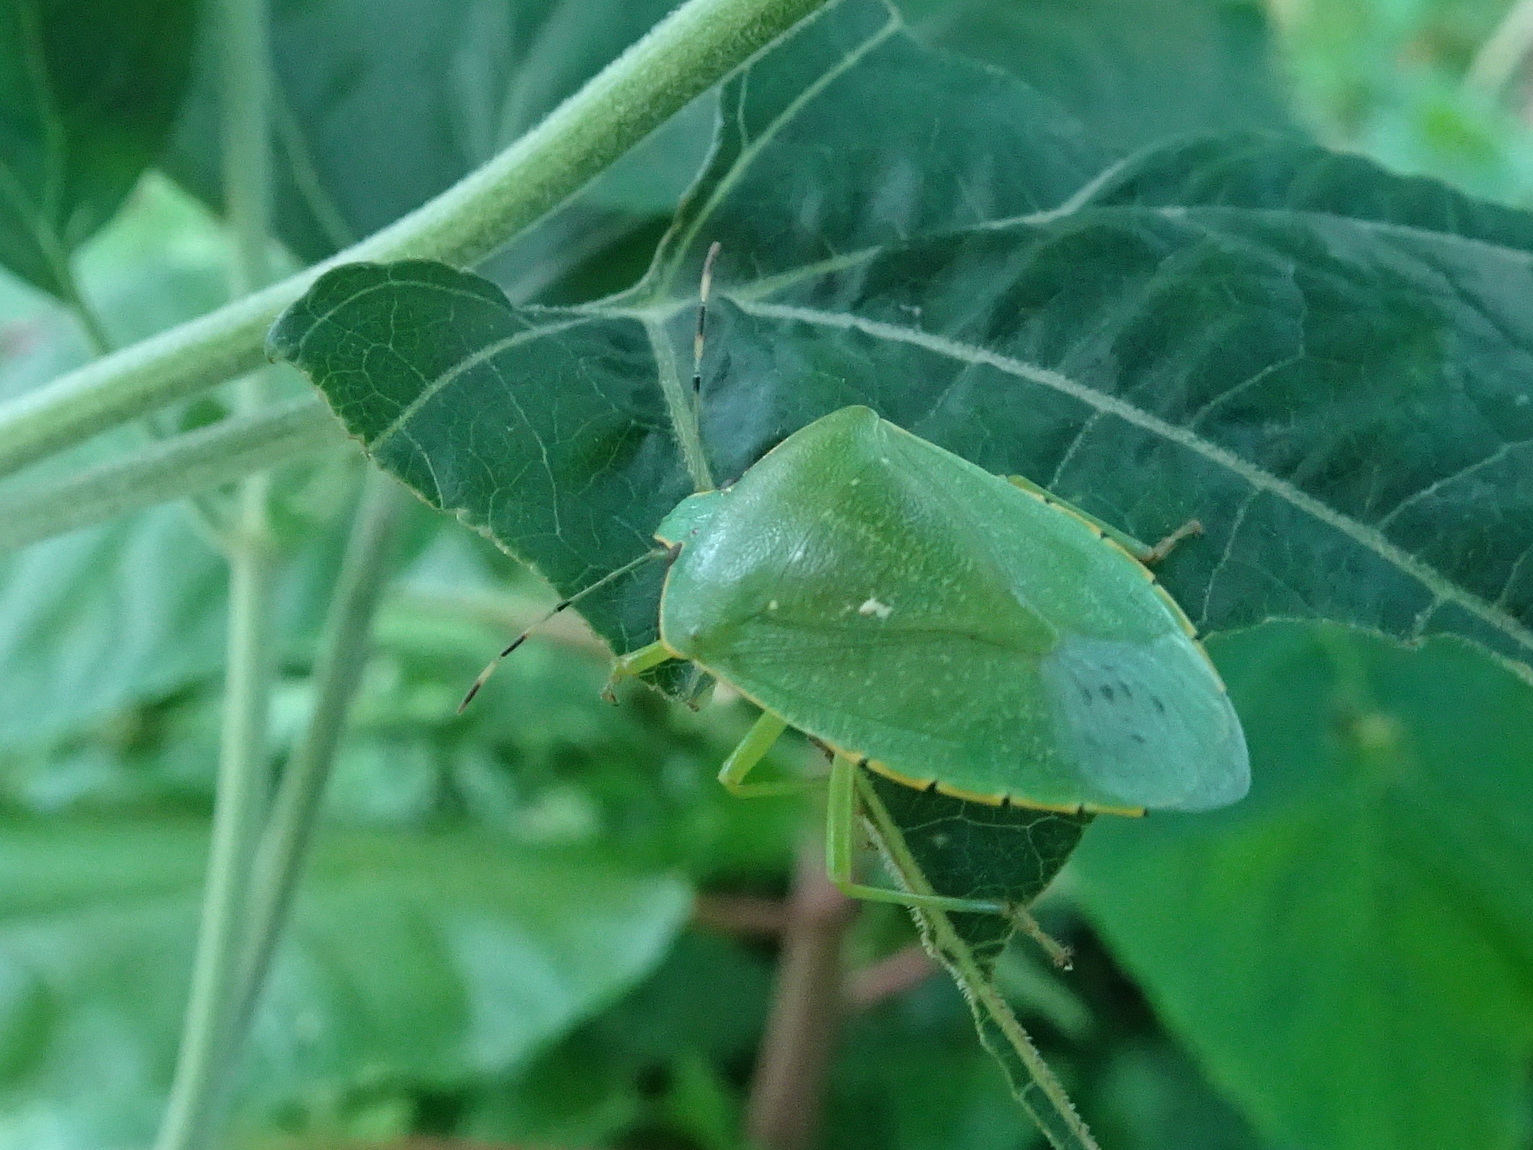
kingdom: Animalia
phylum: Arthropoda
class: Insecta
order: Hemiptera
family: Pentatomidae
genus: Chinavia
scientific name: Chinavia hilaris
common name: Green stink bug
